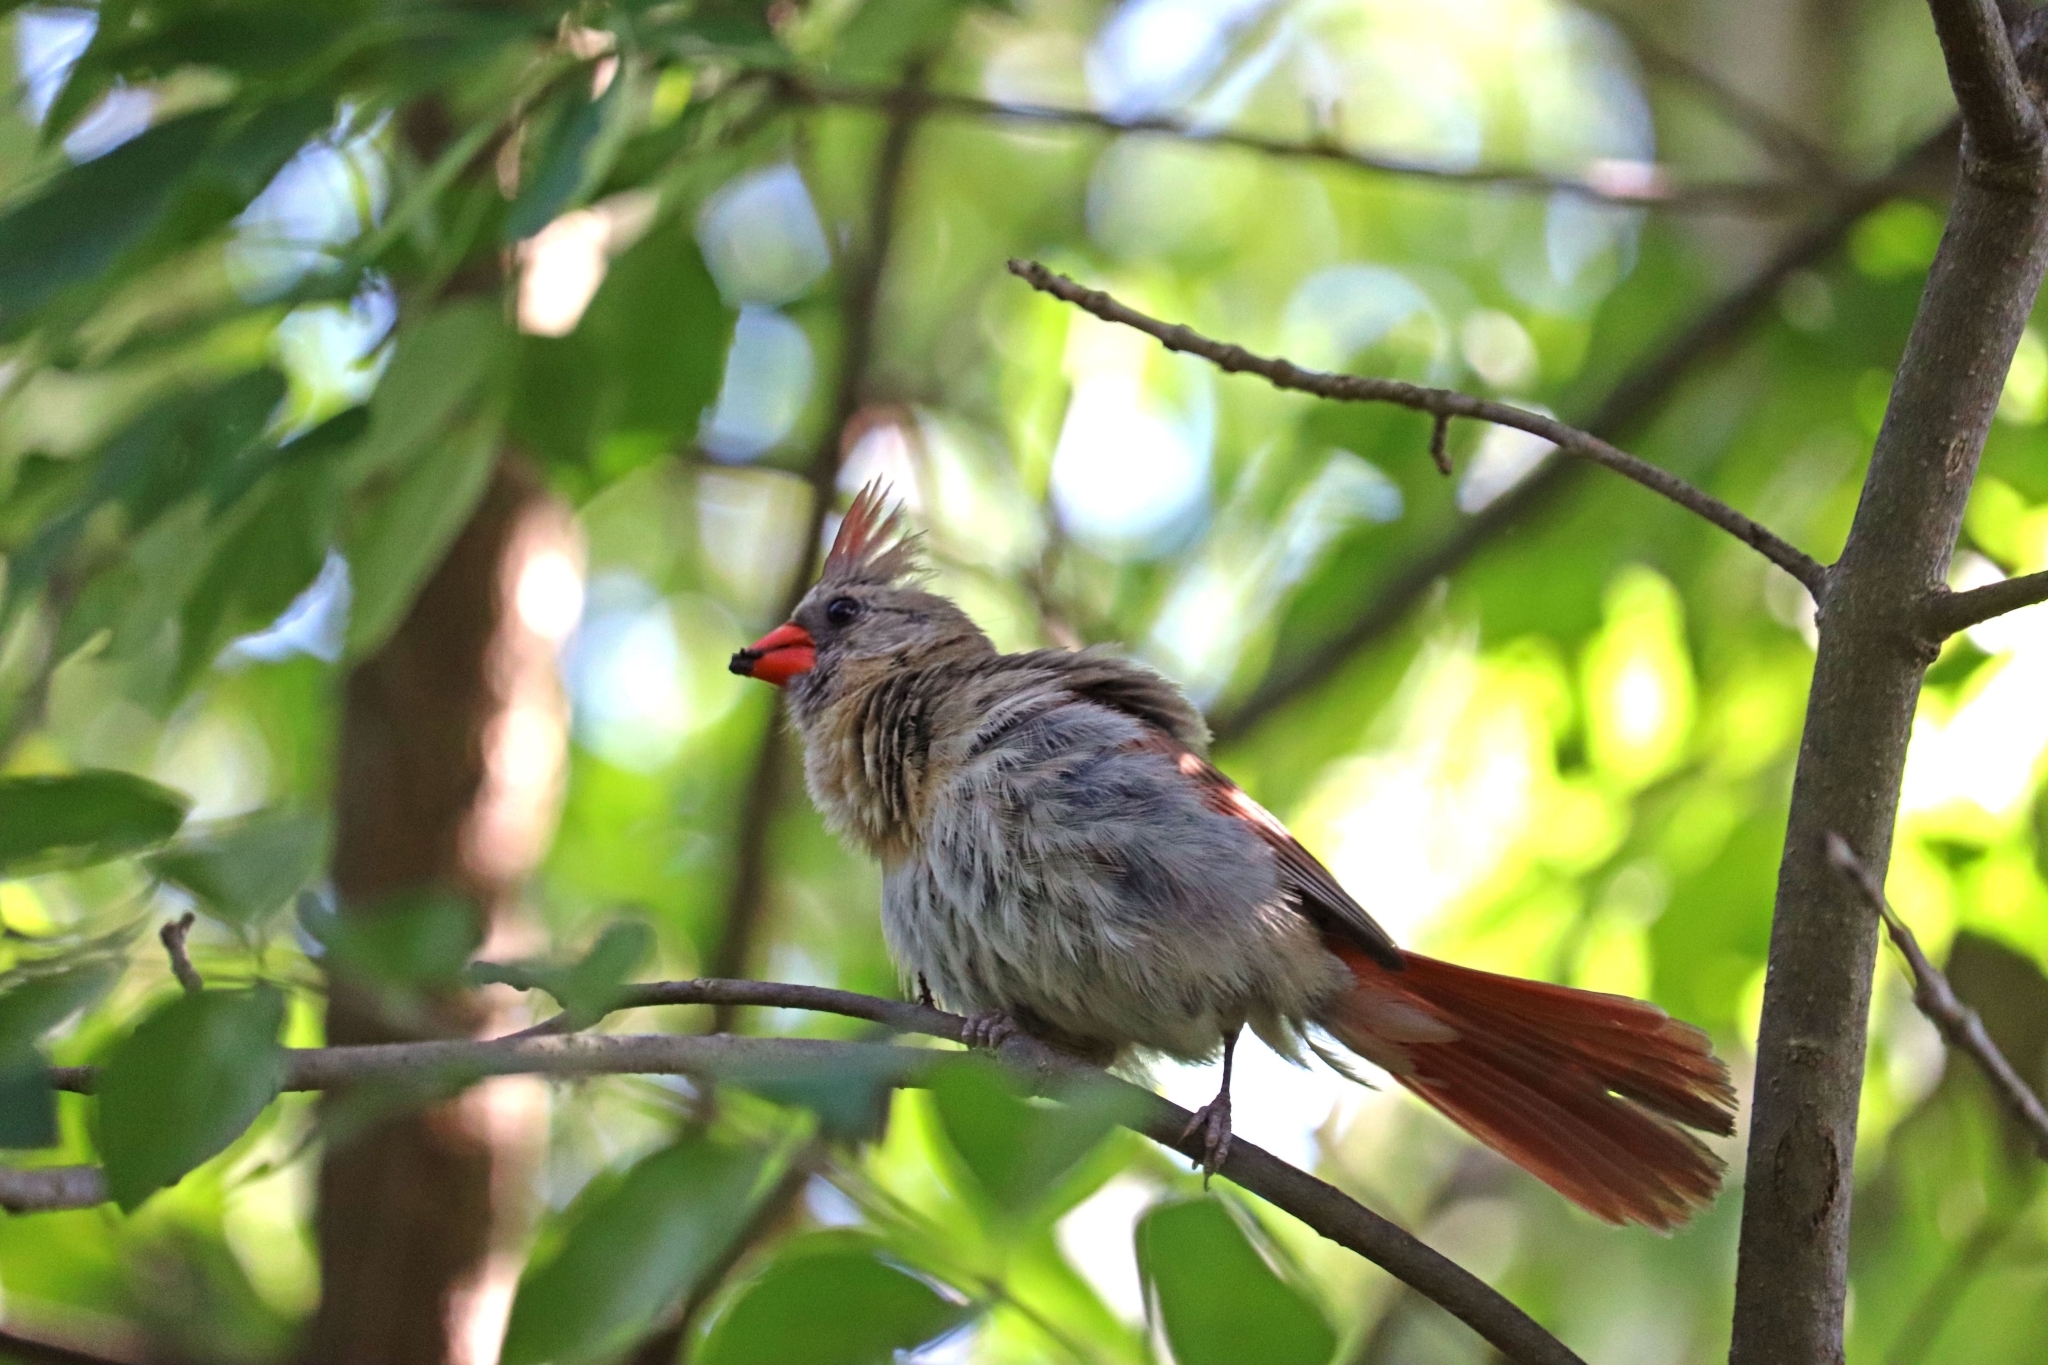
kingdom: Animalia
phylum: Chordata
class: Aves
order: Passeriformes
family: Cardinalidae
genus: Cardinalis
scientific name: Cardinalis cardinalis
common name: Northern cardinal
